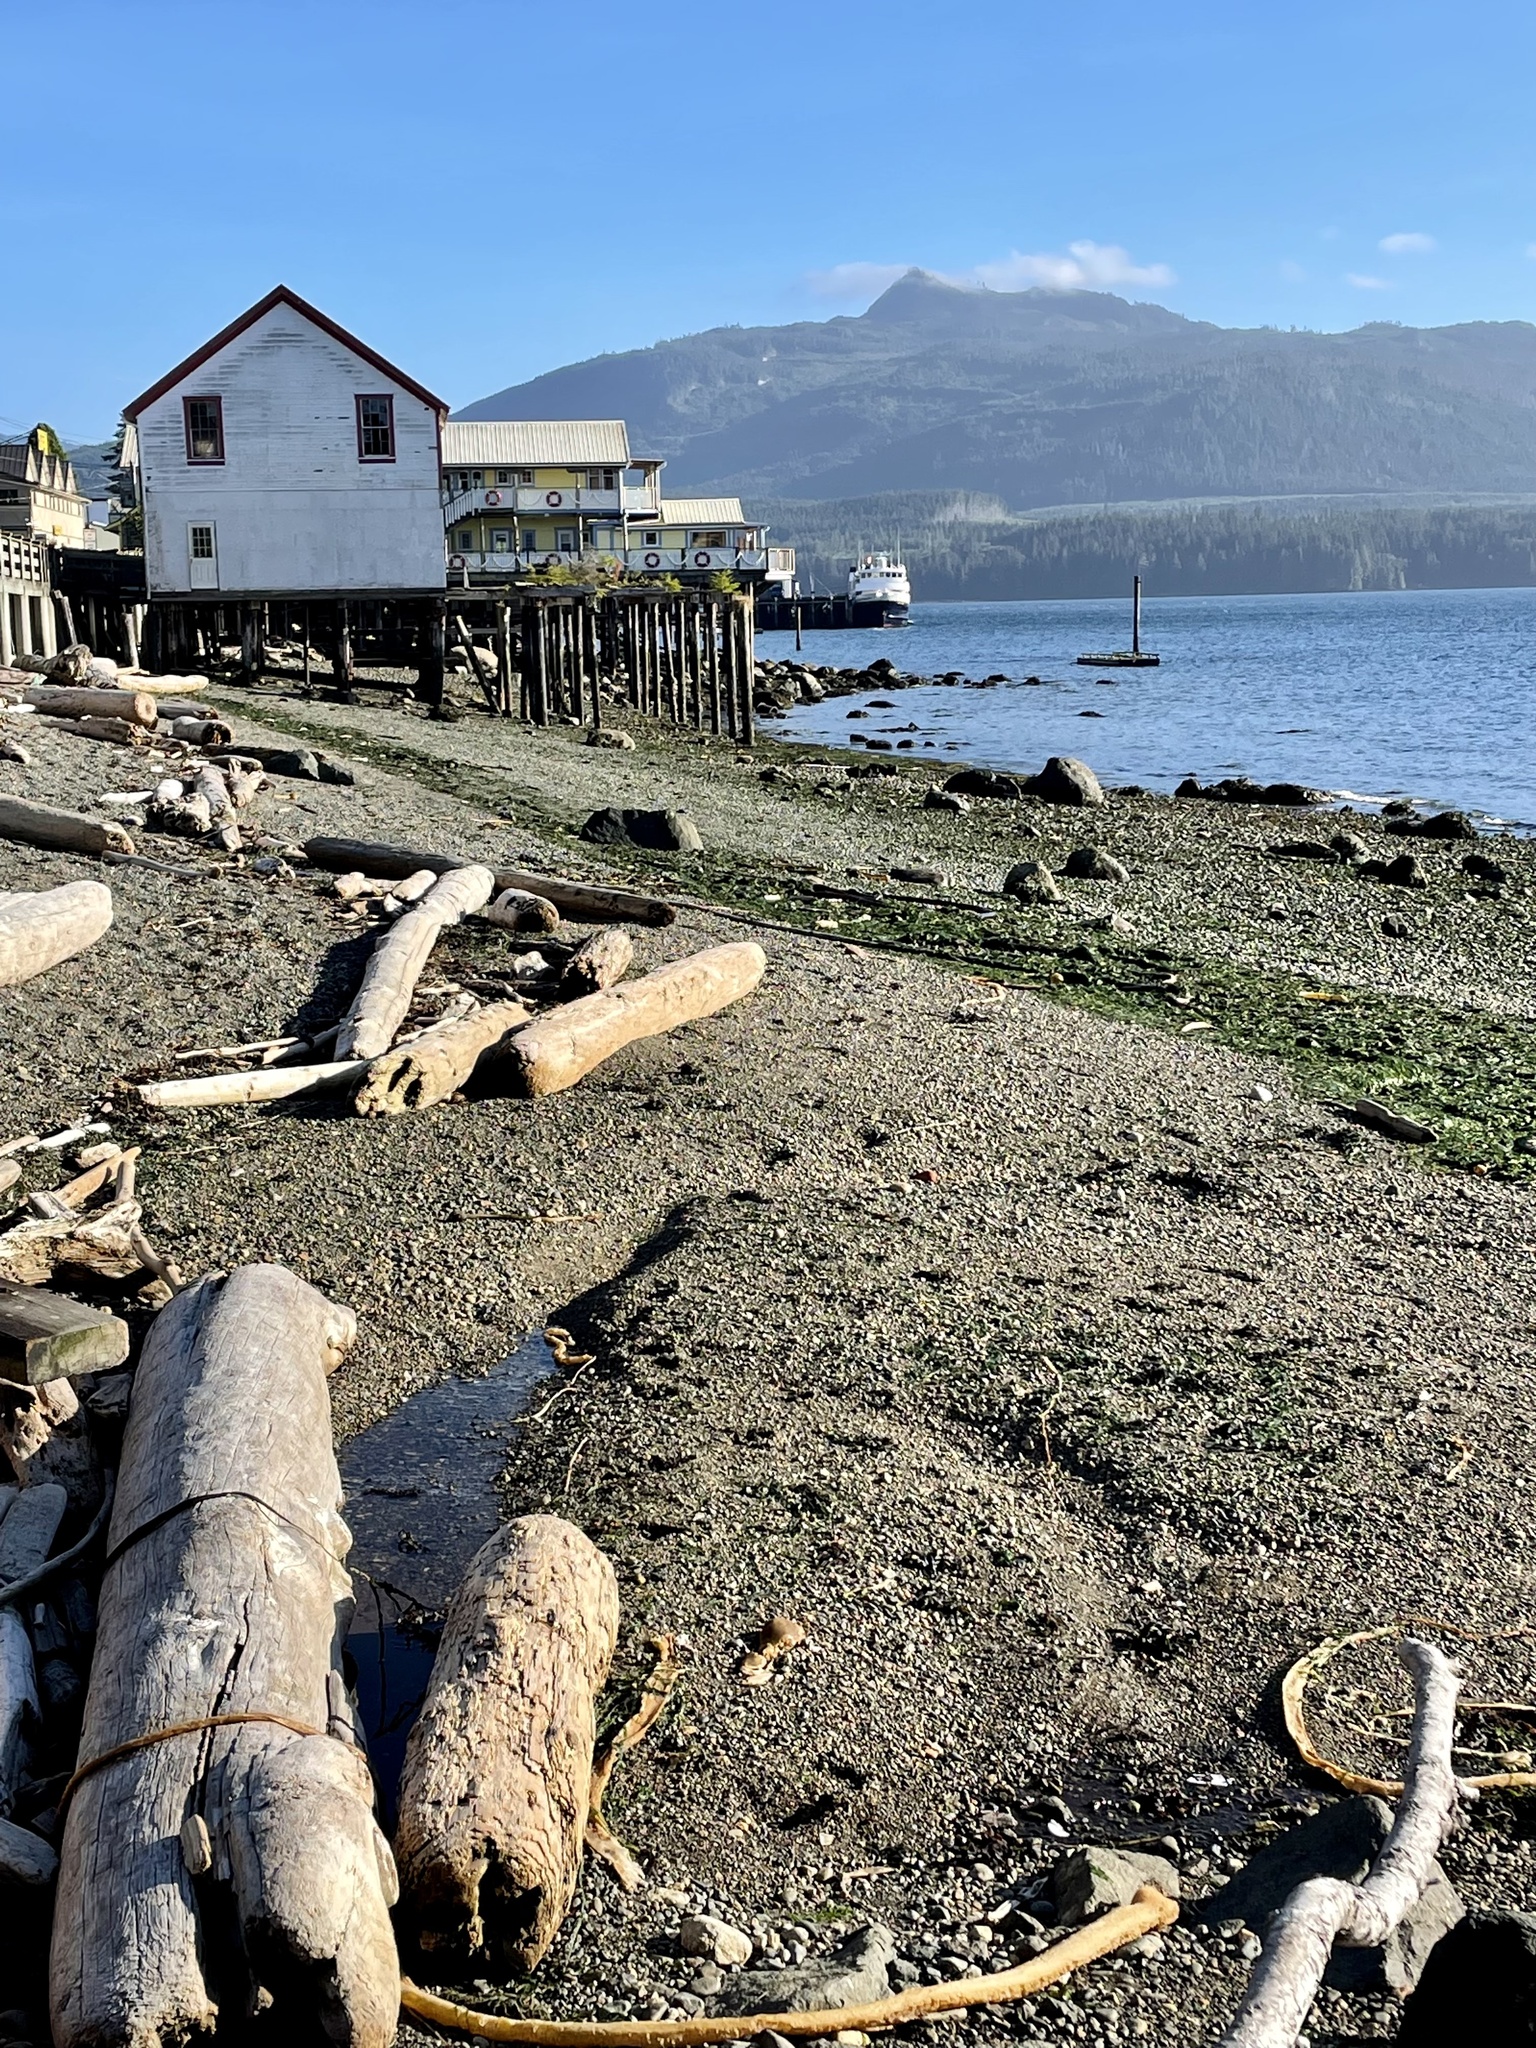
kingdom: Animalia
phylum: Arthropoda
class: Malacostraca
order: Decapoda
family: Varunidae
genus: Hemigrapsus
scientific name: Hemigrapsus nudus
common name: Purple shore crab
